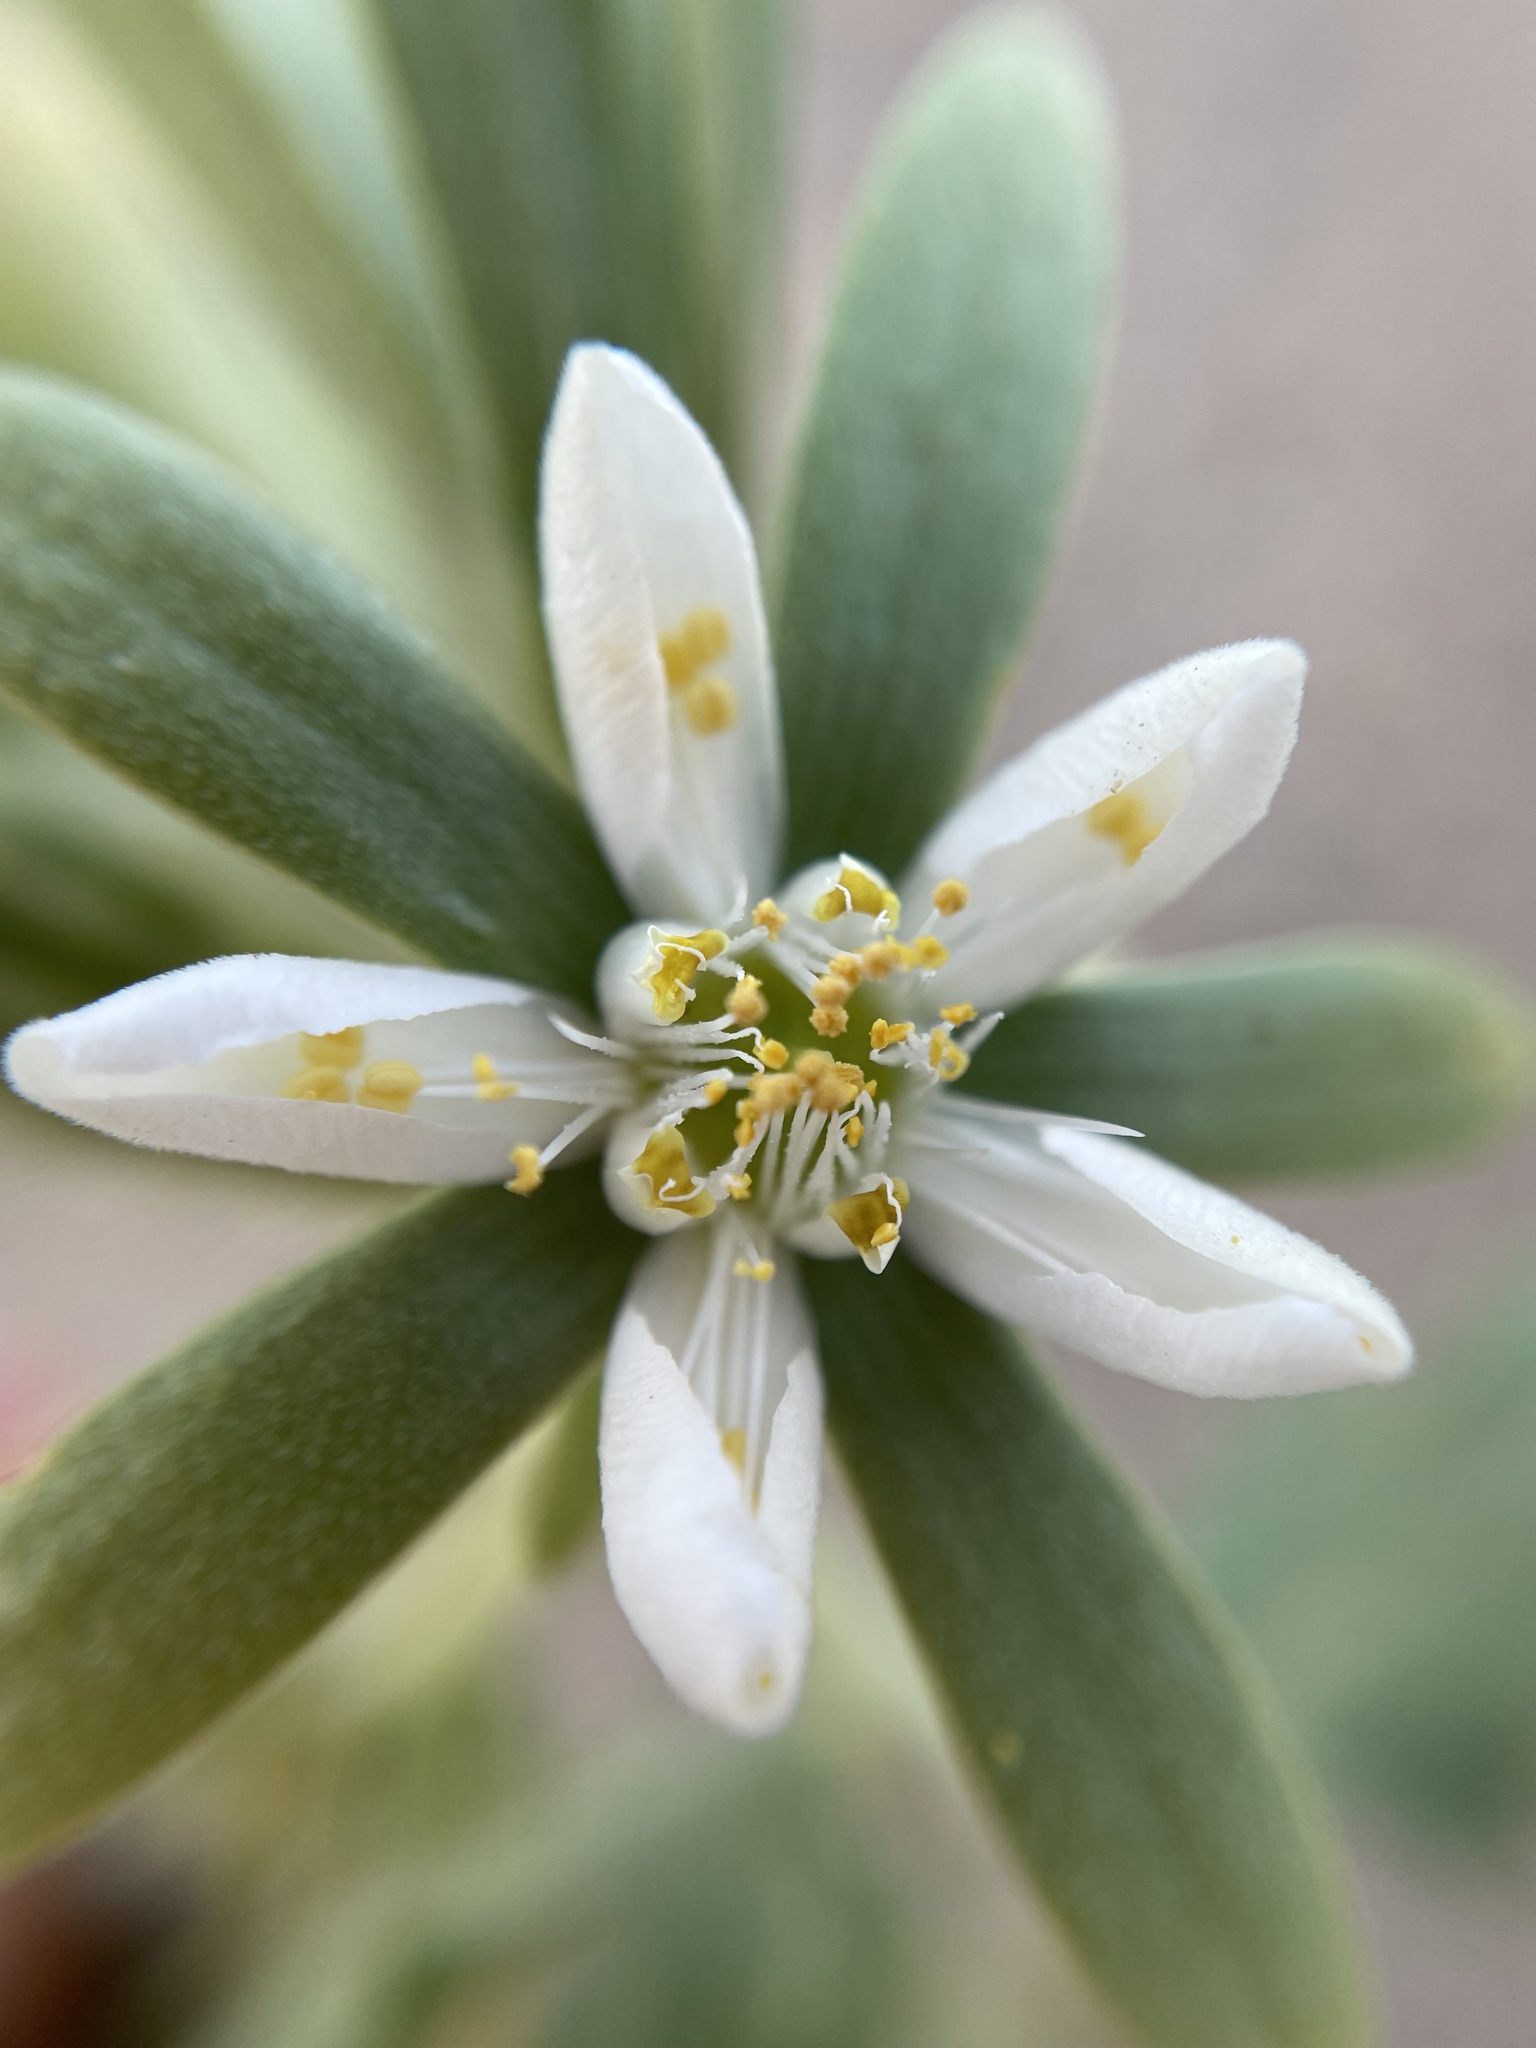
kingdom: Plantae
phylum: Tracheophyta
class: Magnoliopsida
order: Cornales
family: Loasaceae
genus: Kissenia
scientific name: Kissenia capensis
